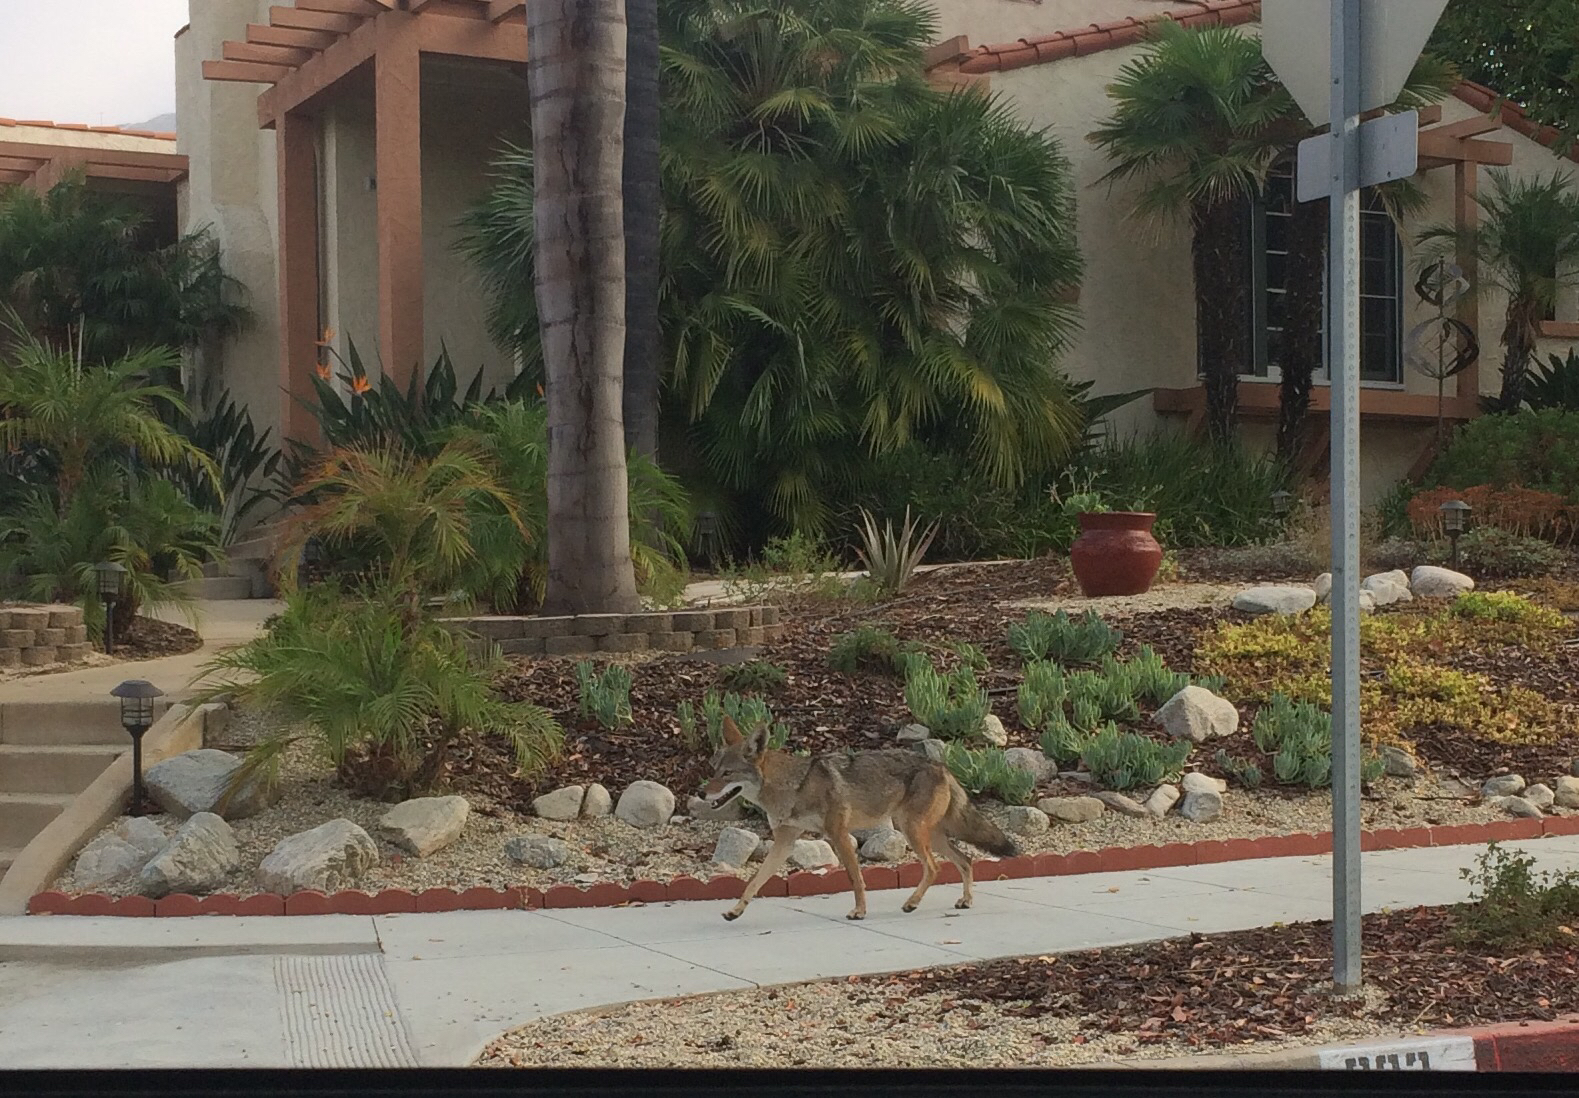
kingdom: Animalia
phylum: Chordata
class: Mammalia
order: Carnivora
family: Canidae
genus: Canis
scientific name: Canis latrans
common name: Coyote
